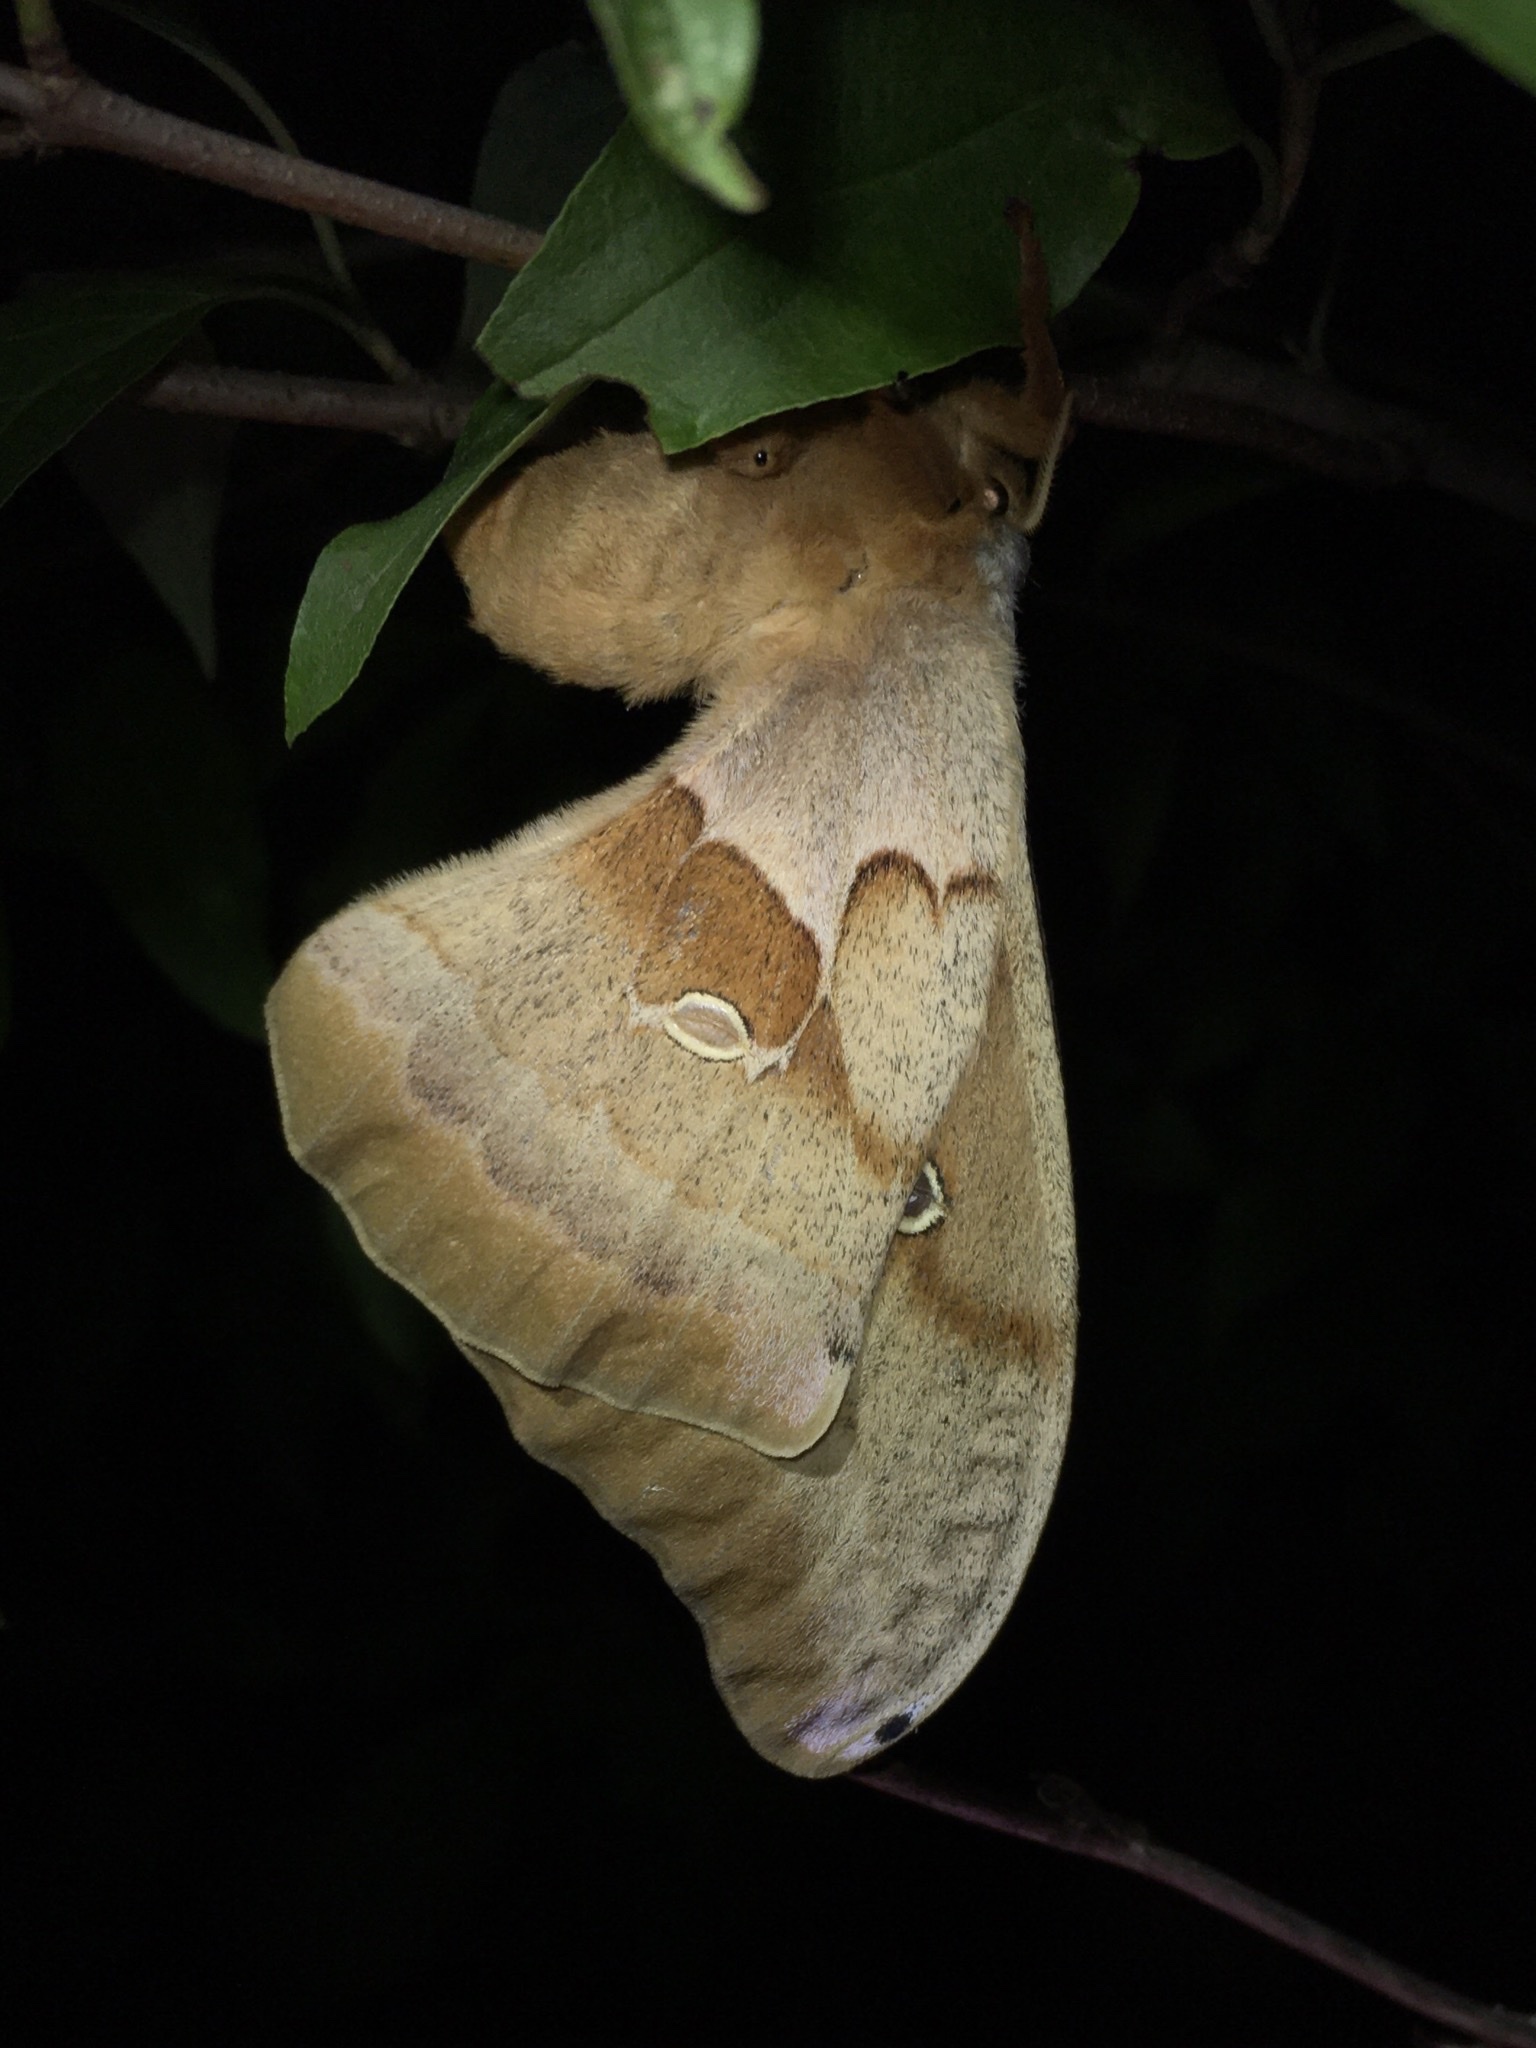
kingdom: Animalia
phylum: Arthropoda
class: Insecta
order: Lepidoptera
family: Saturniidae
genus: Antheraea
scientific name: Antheraea polyphemus
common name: Polyphemus moth
